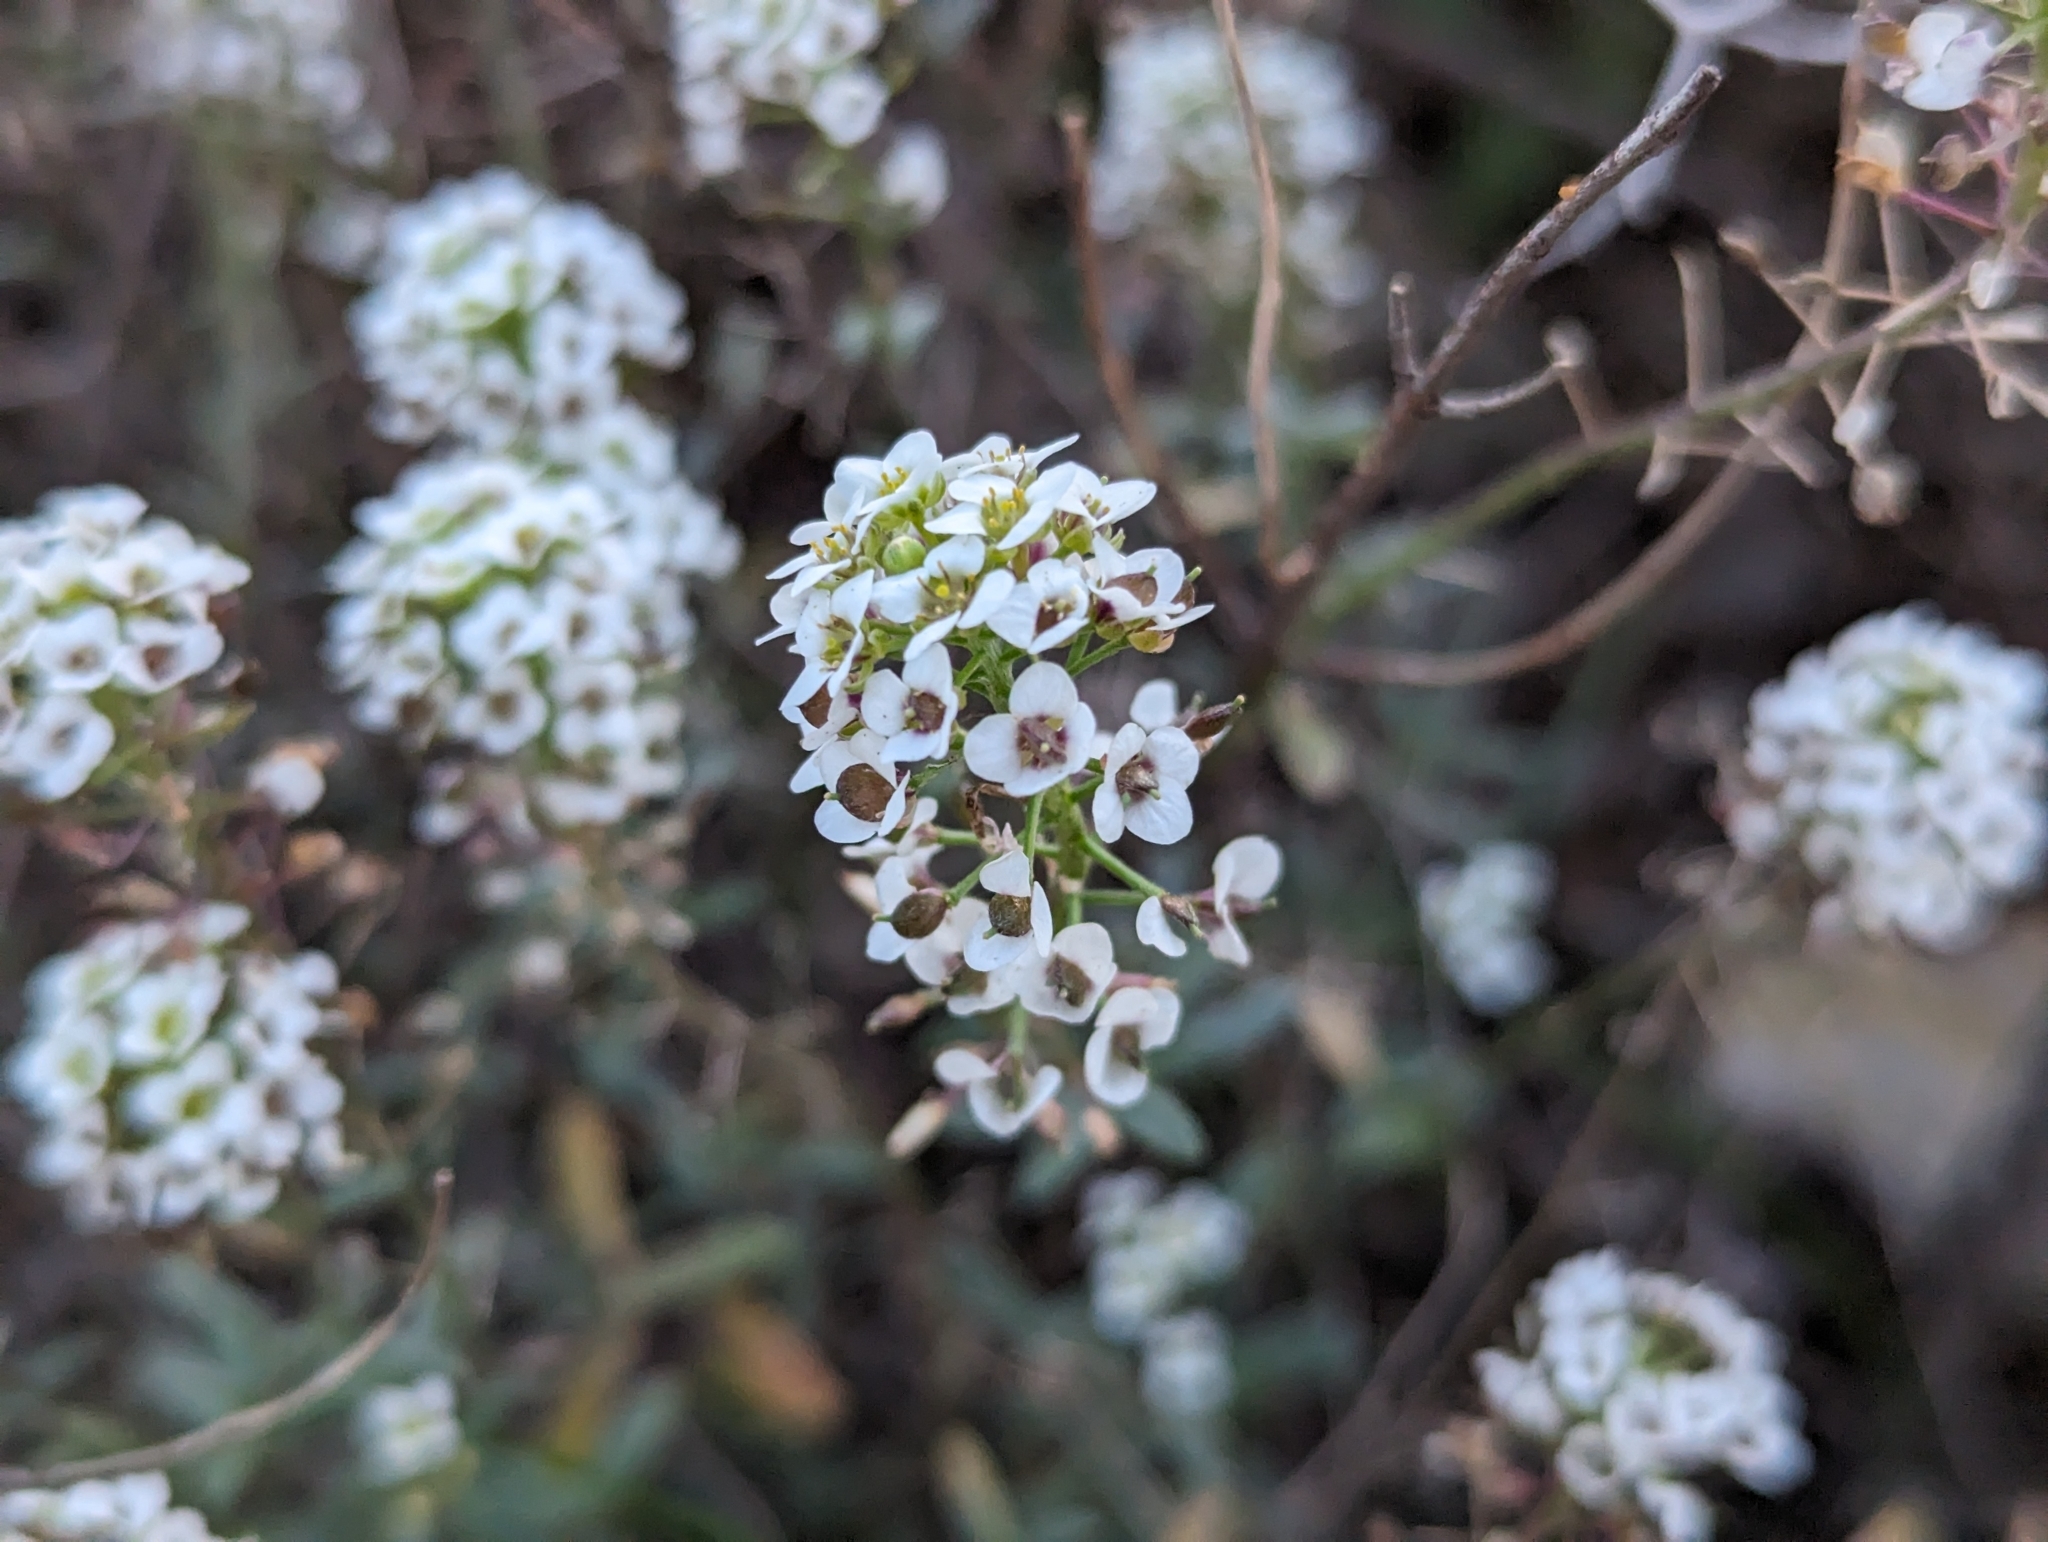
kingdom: Plantae
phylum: Tracheophyta
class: Magnoliopsida
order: Brassicales
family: Brassicaceae
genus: Lobularia
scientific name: Lobularia maritima
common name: Sweet alison
